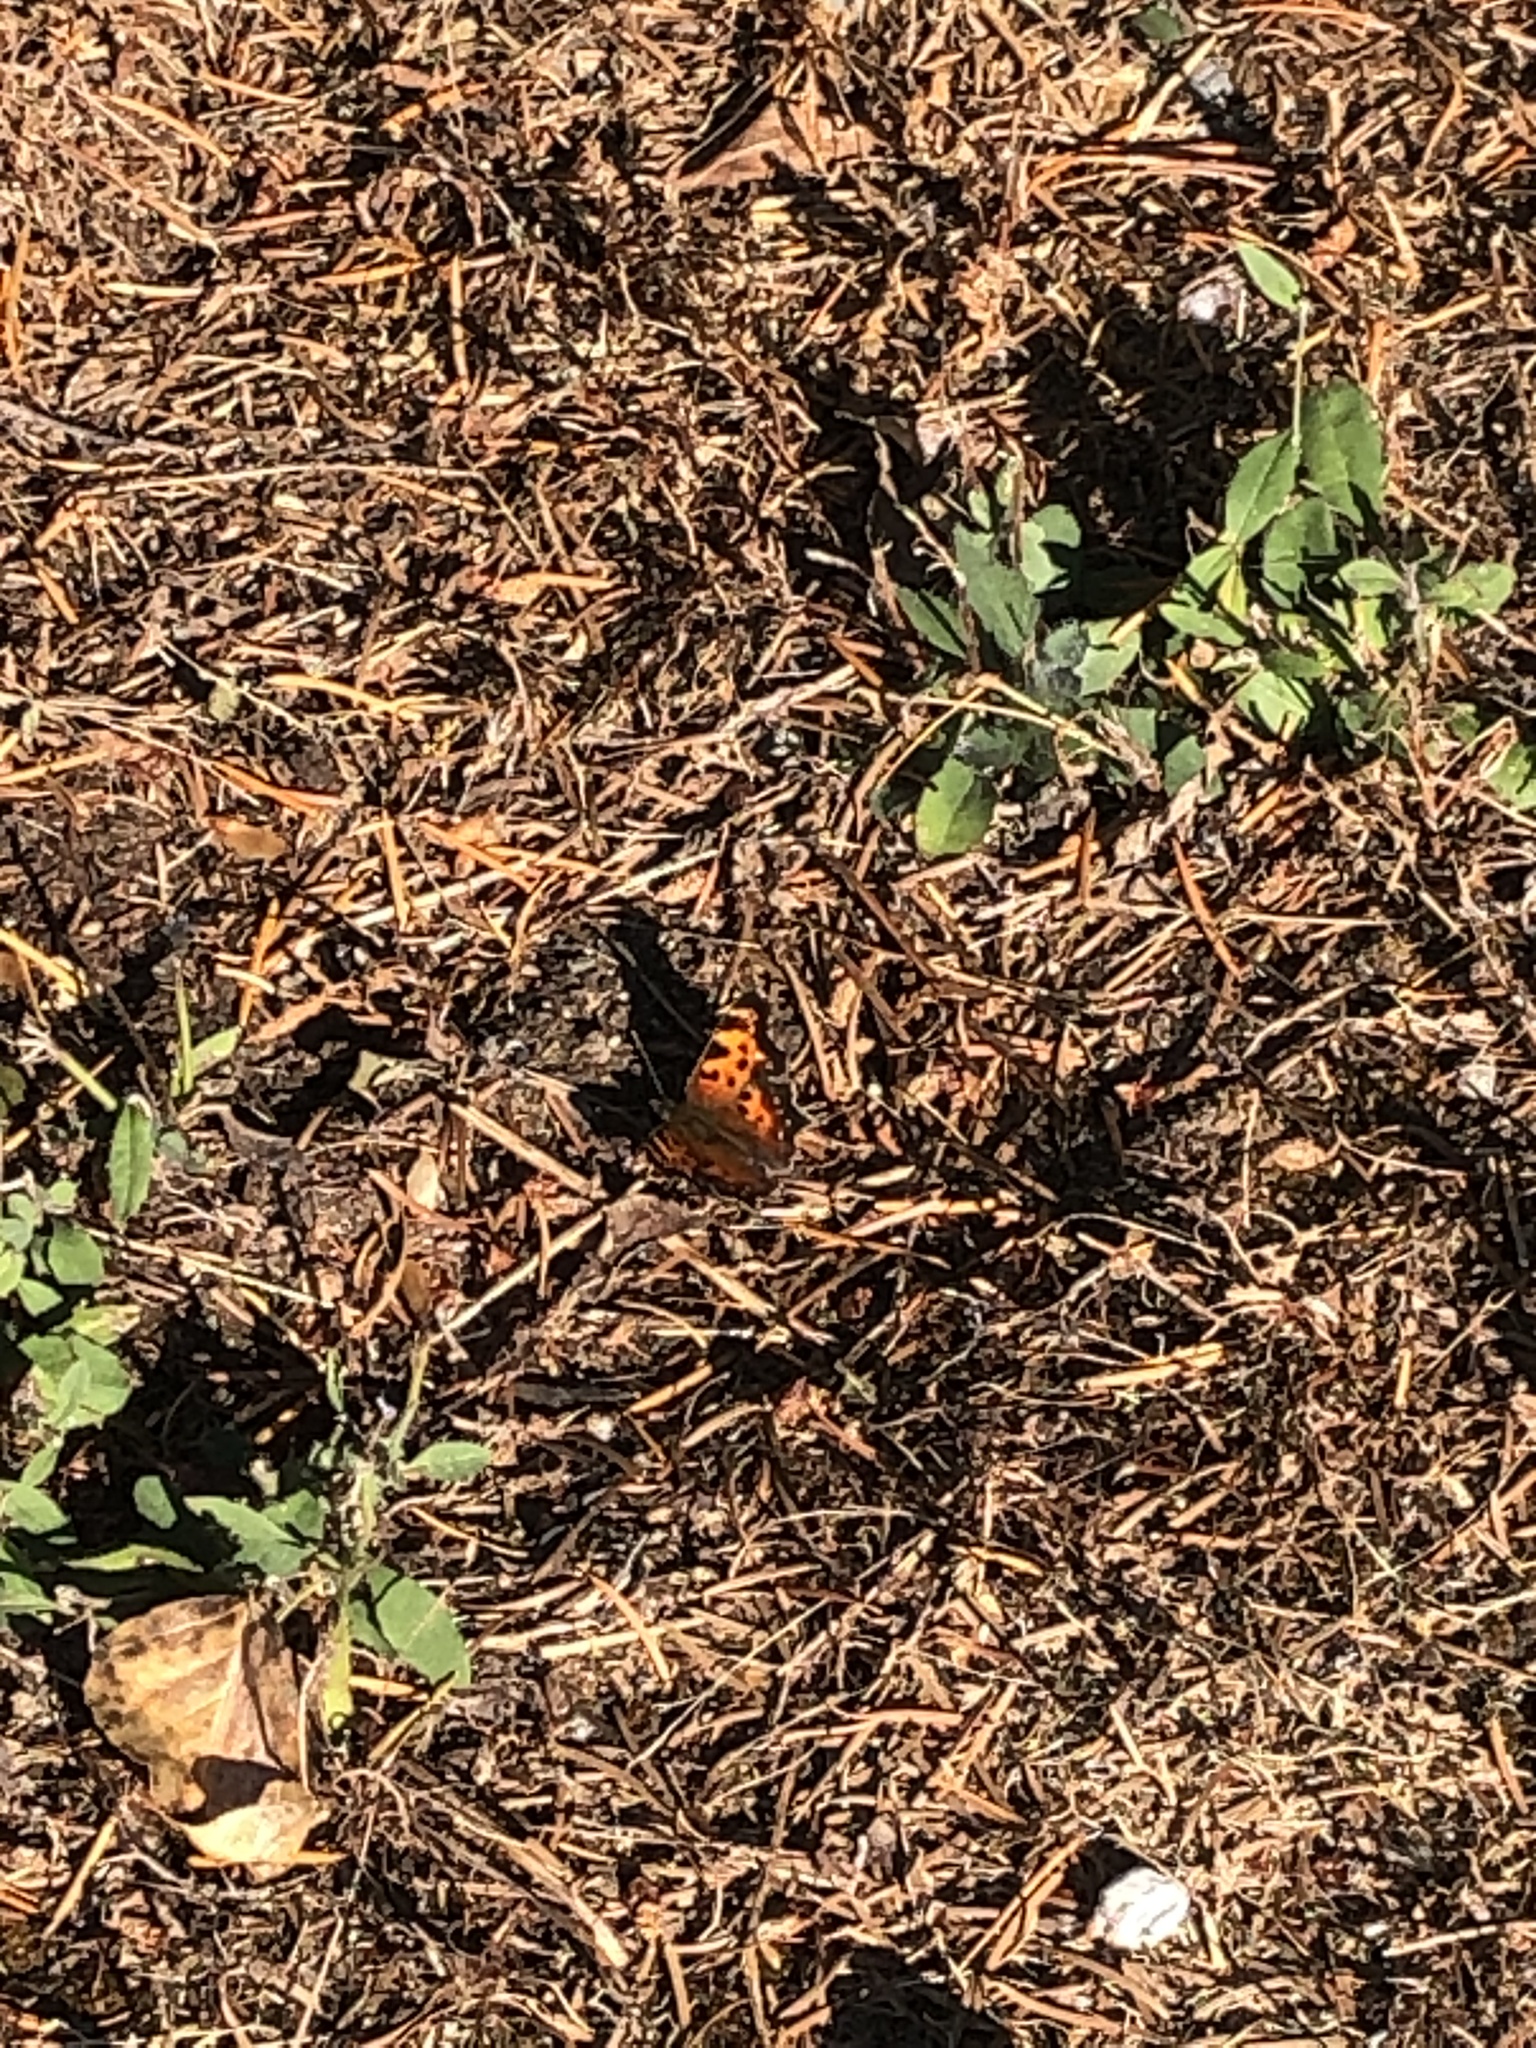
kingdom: Animalia
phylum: Arthropoda
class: Insecta
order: Lepidoptera
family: Nymphalidae
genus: Polygonia
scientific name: Polygonia faunus
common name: Green comma
